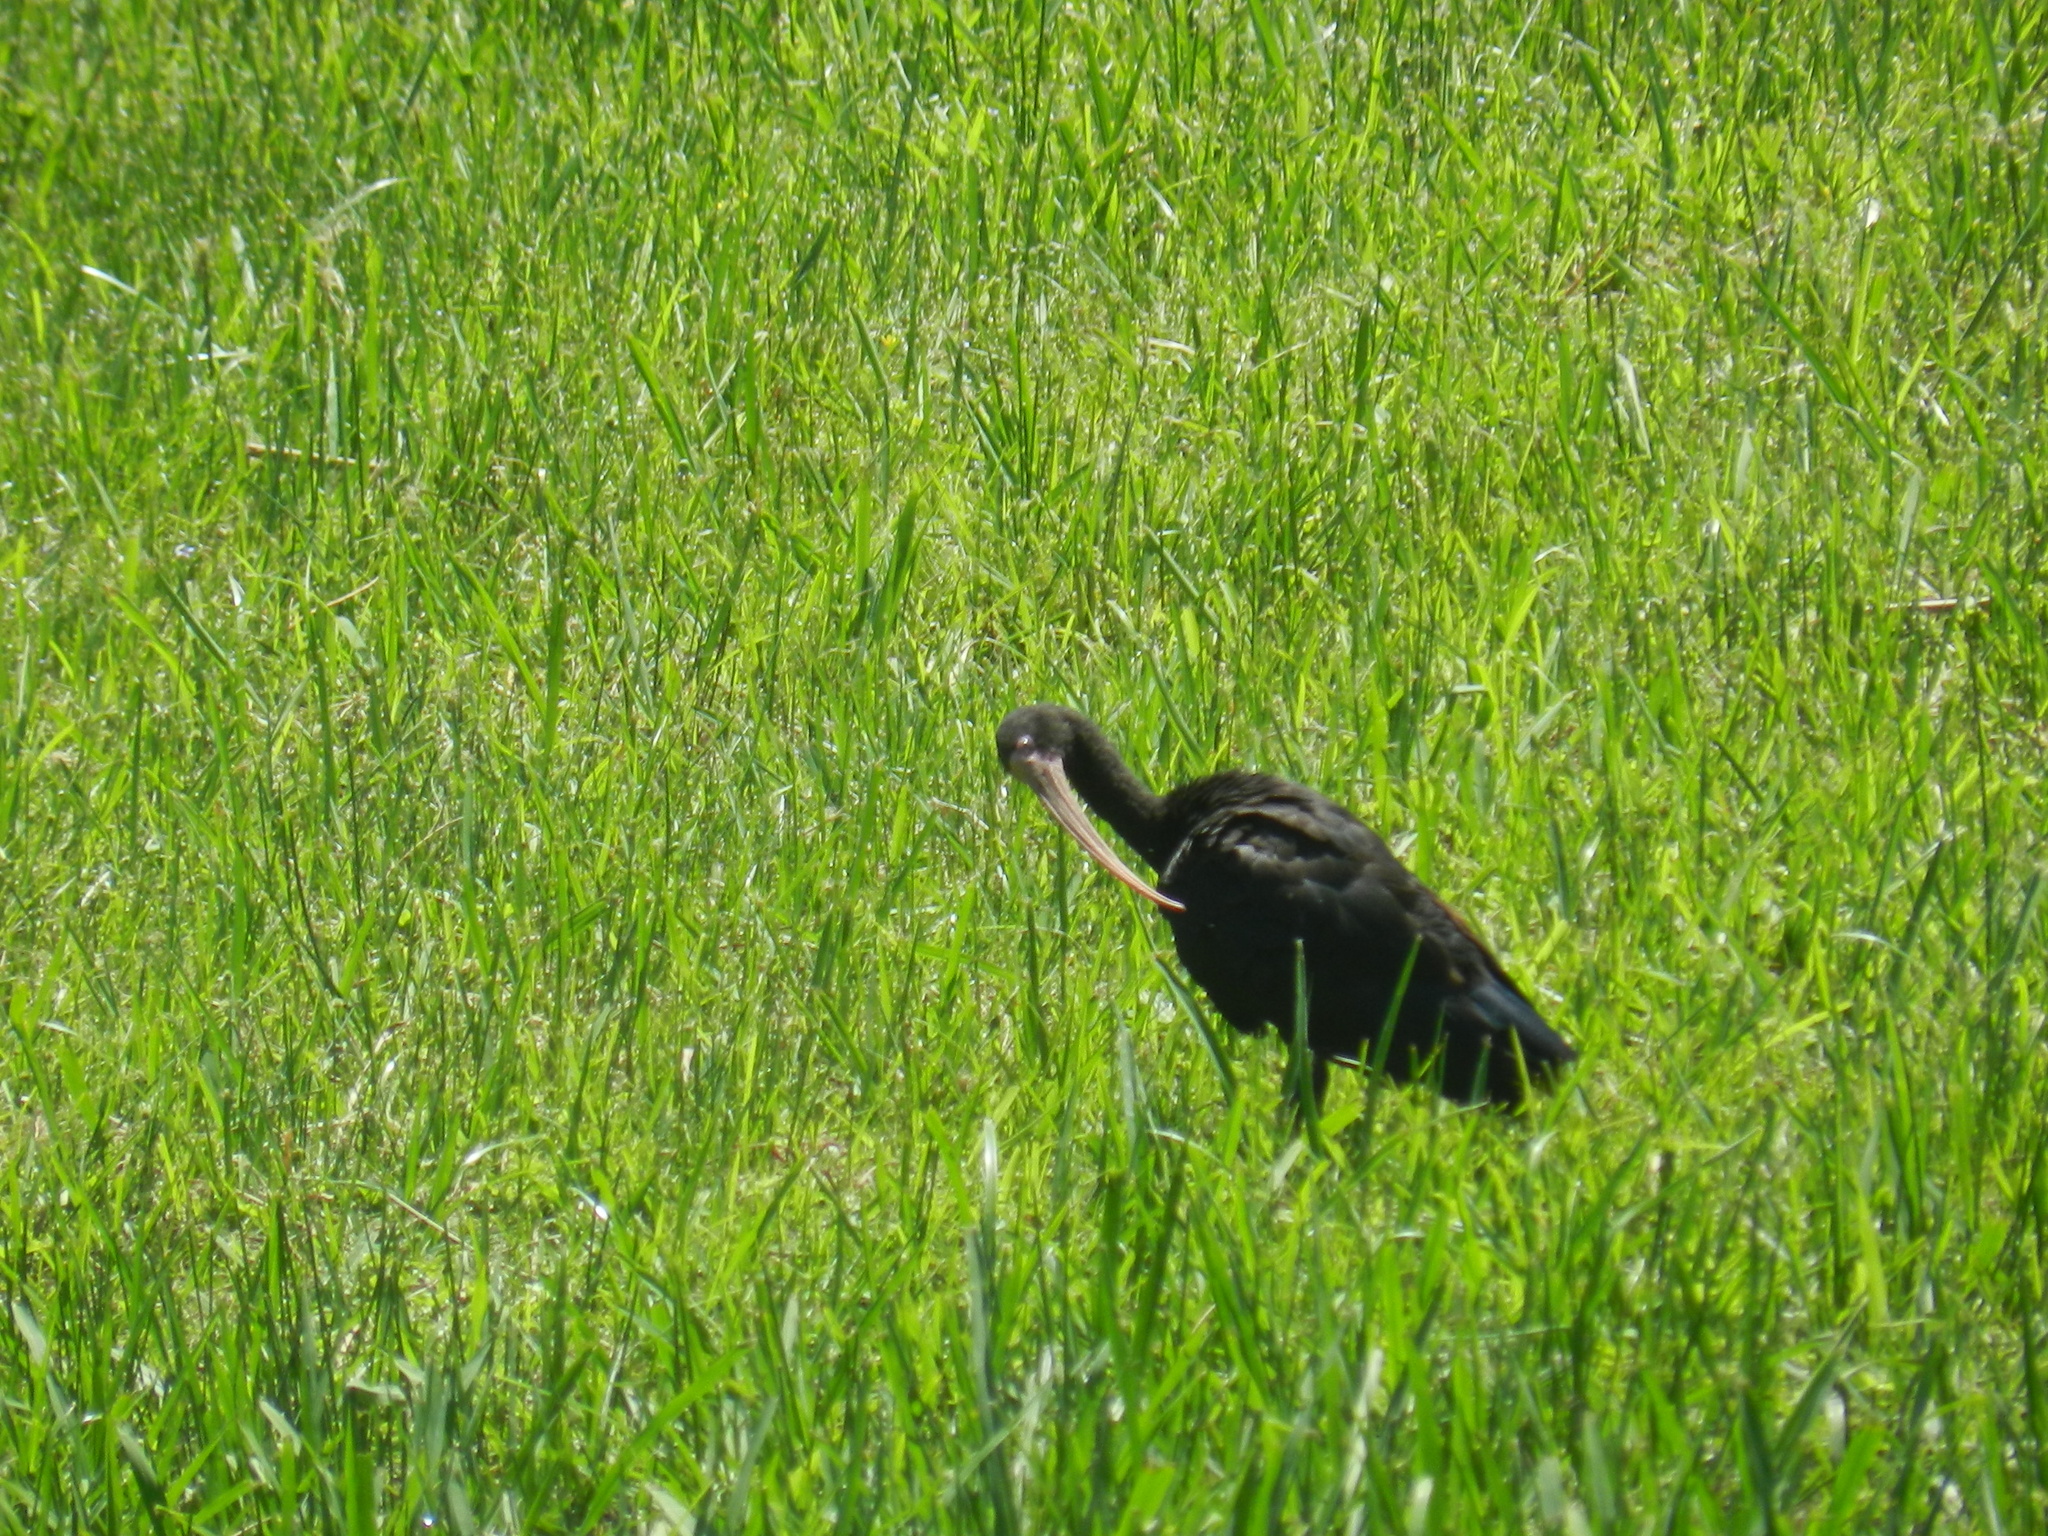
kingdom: Animalia
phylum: Chordata
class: Aves
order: Pelecaniformes
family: Threskiornithidae
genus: Phimosus
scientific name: Phimosus infuscatus
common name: Bare-faced ibis
